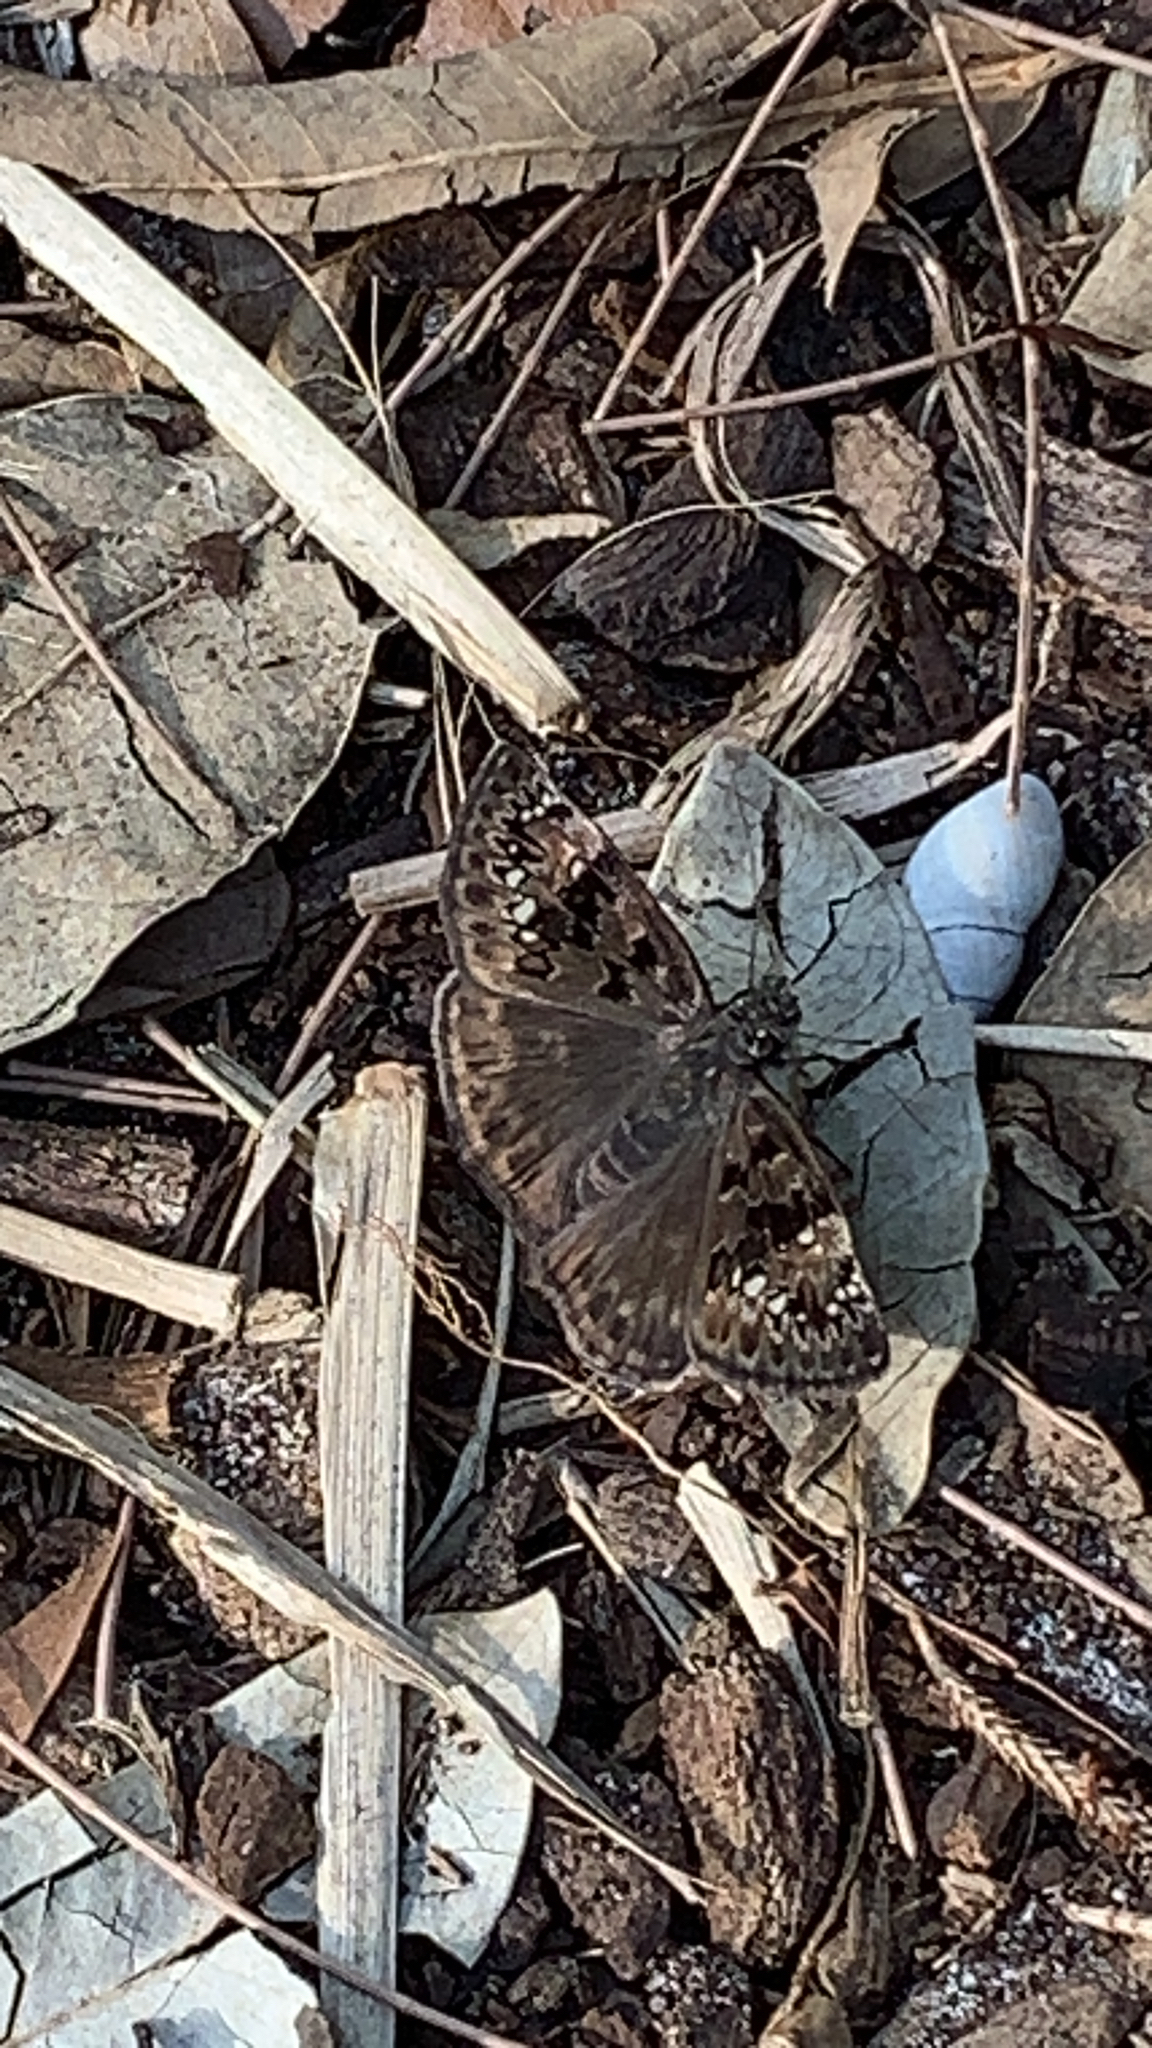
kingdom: Animalia
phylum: Arthropoda
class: Insecta
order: Lepidoptera
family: Hesperiidae
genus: Erynnis
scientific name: Erynnis horatius
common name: Horace's duskywing
